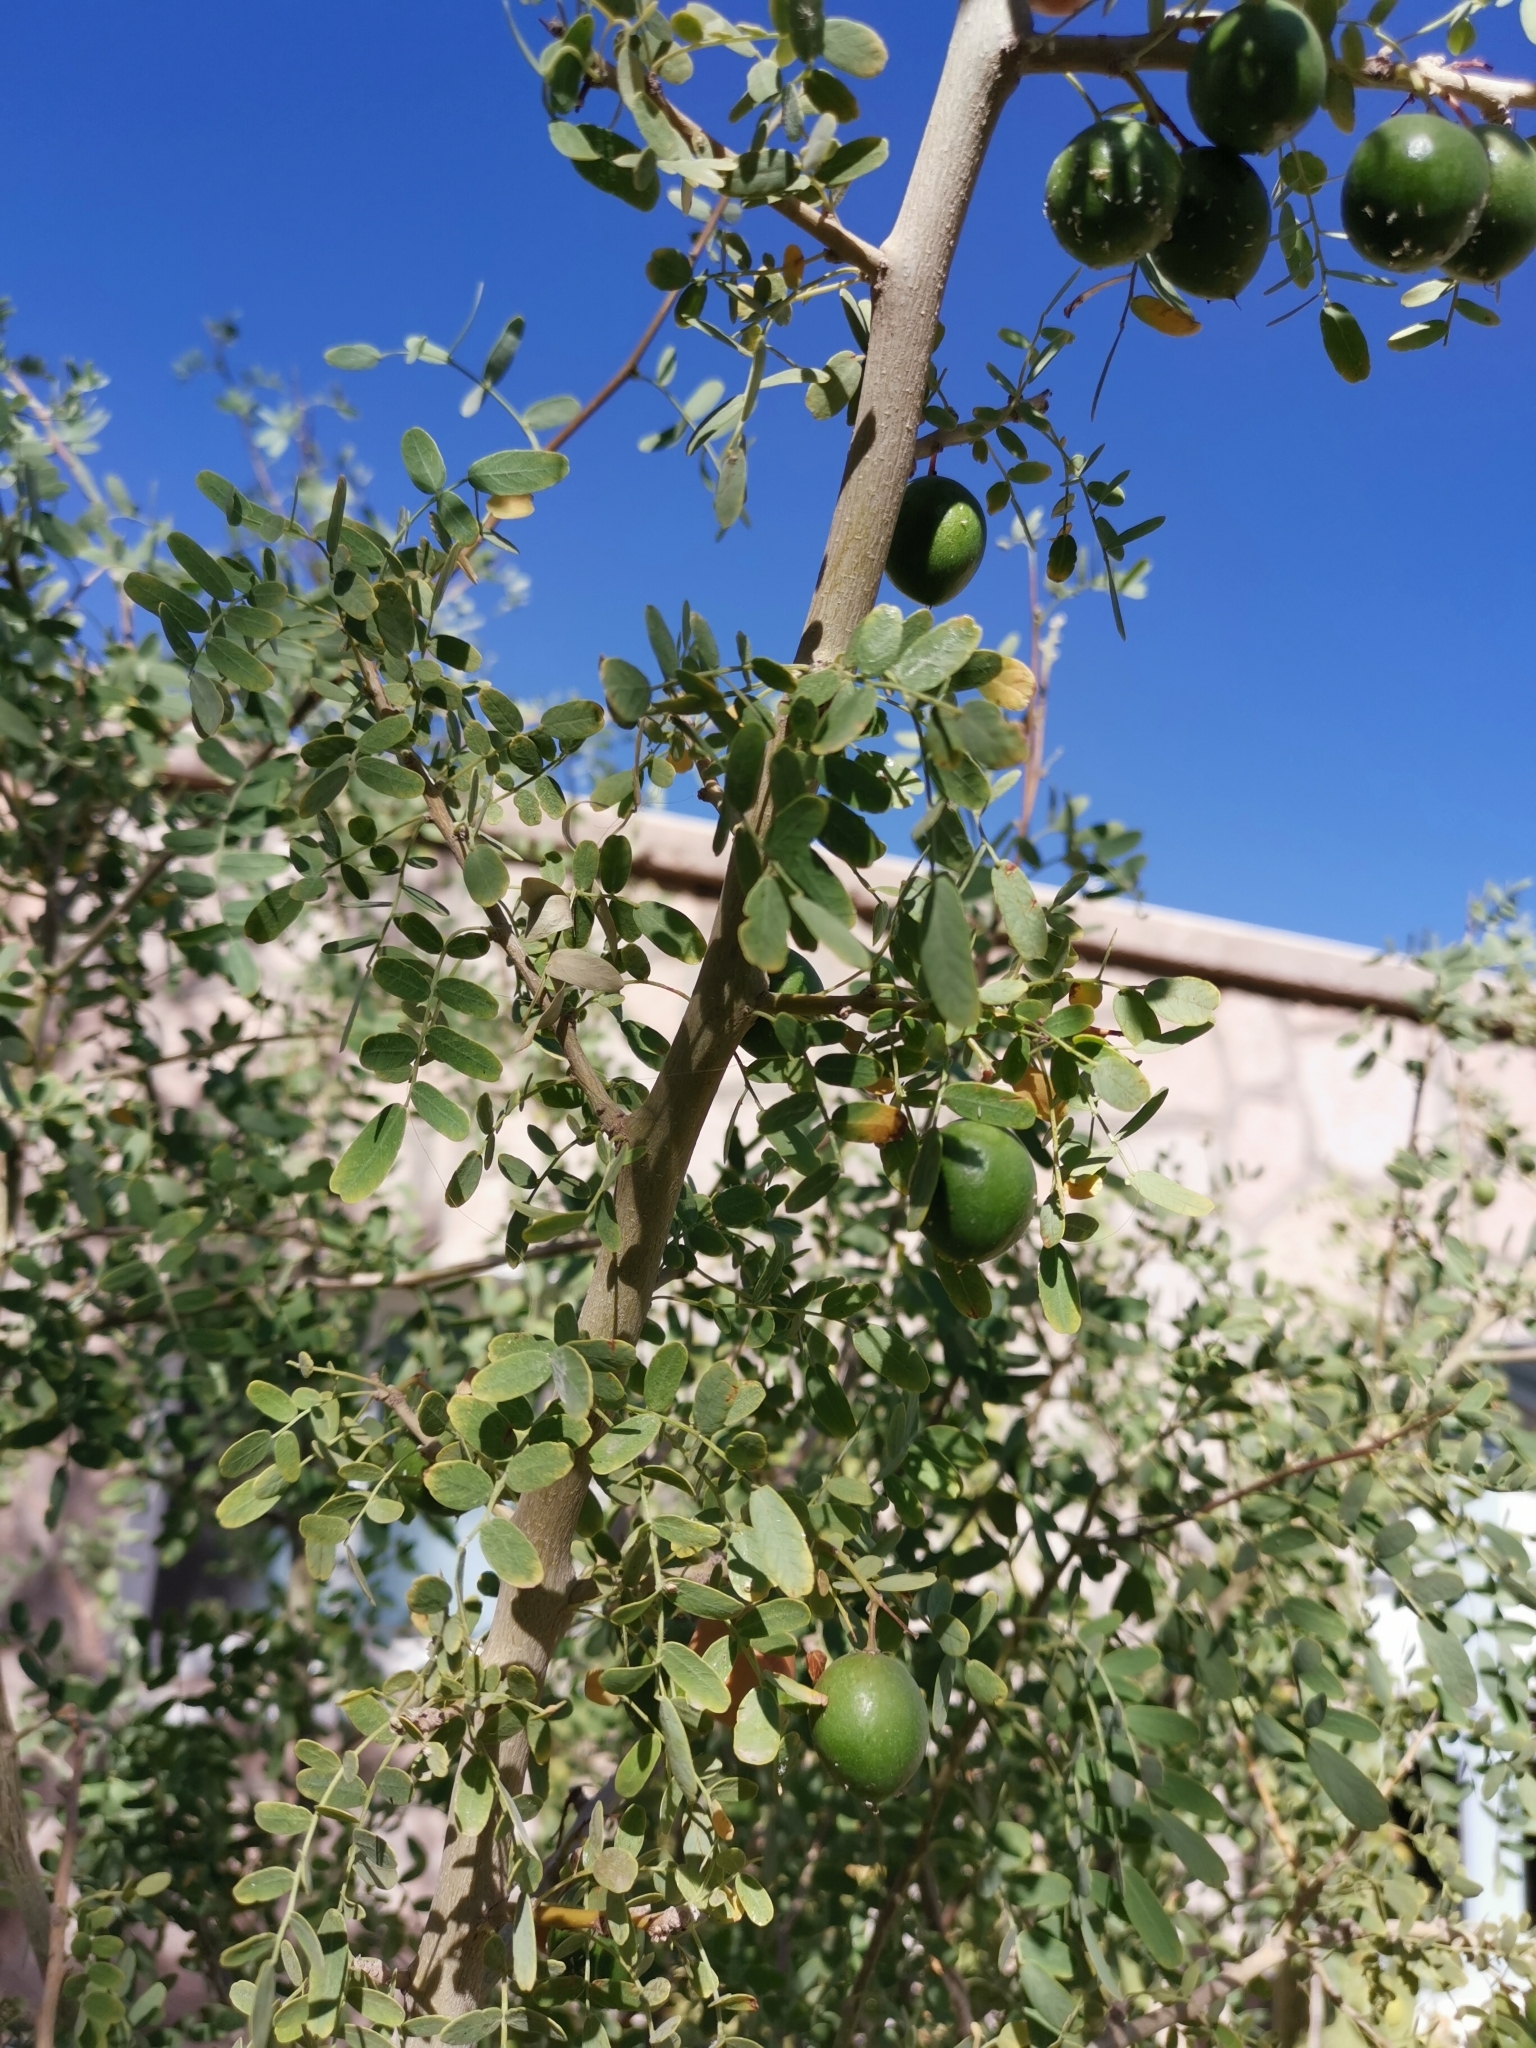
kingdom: Plantae
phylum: Tracheophyta
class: Magnoliopsida
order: Fabales
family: Fabaceae
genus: Geoffroea
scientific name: Geoffroea decorticans
